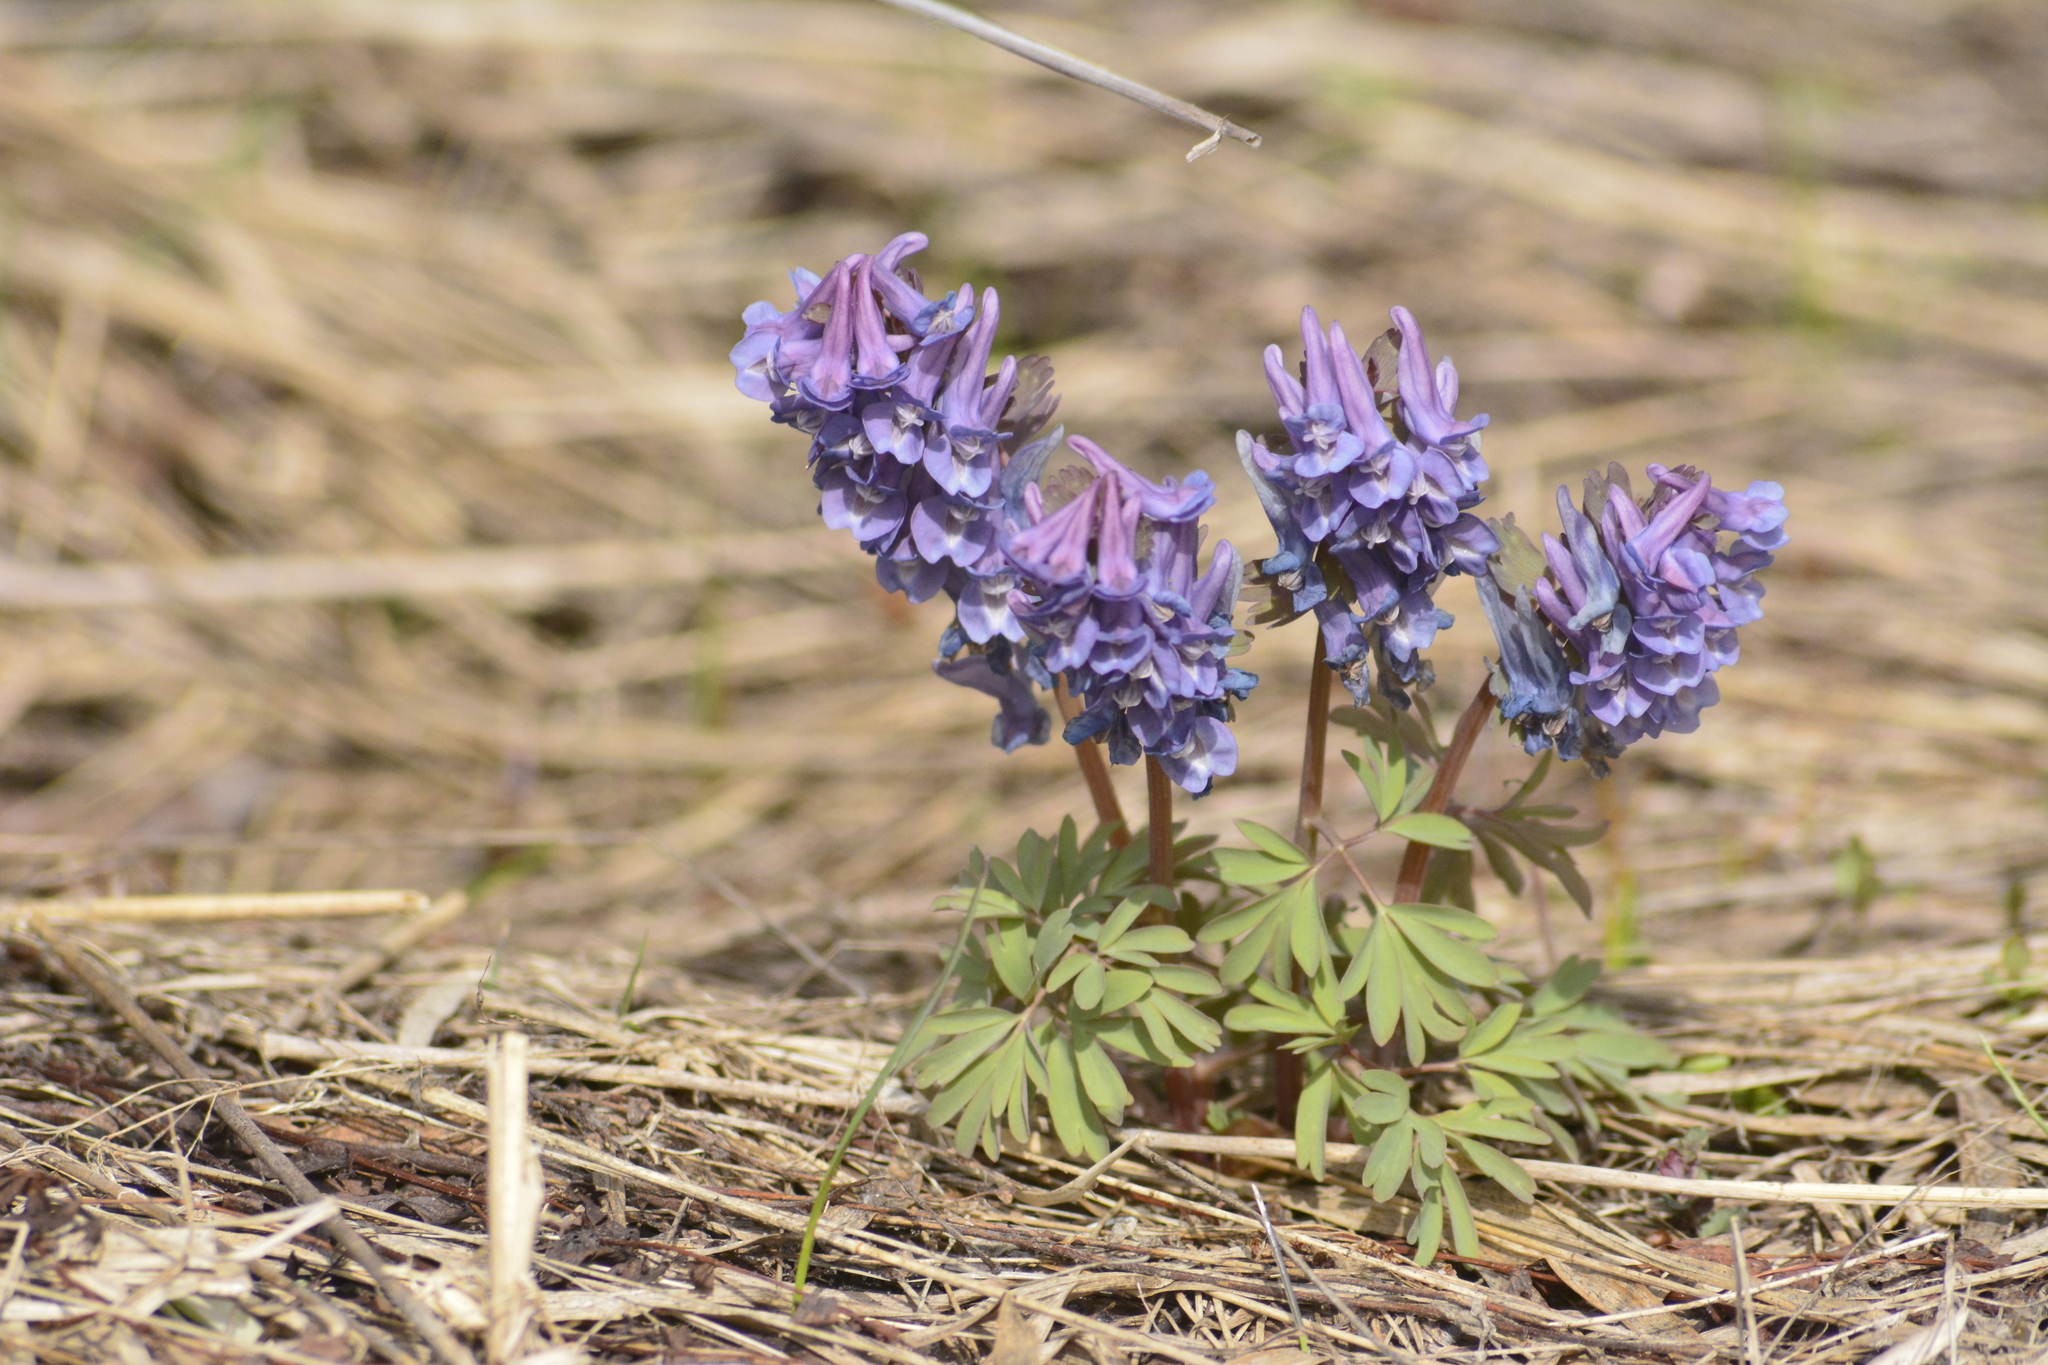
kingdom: Plantae
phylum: Tracheophyta
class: Magnoliopsida
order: Ranunculales
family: Papaveraceae
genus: Corydalis
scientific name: Corydalis solida
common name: Bird-in-a-bush
